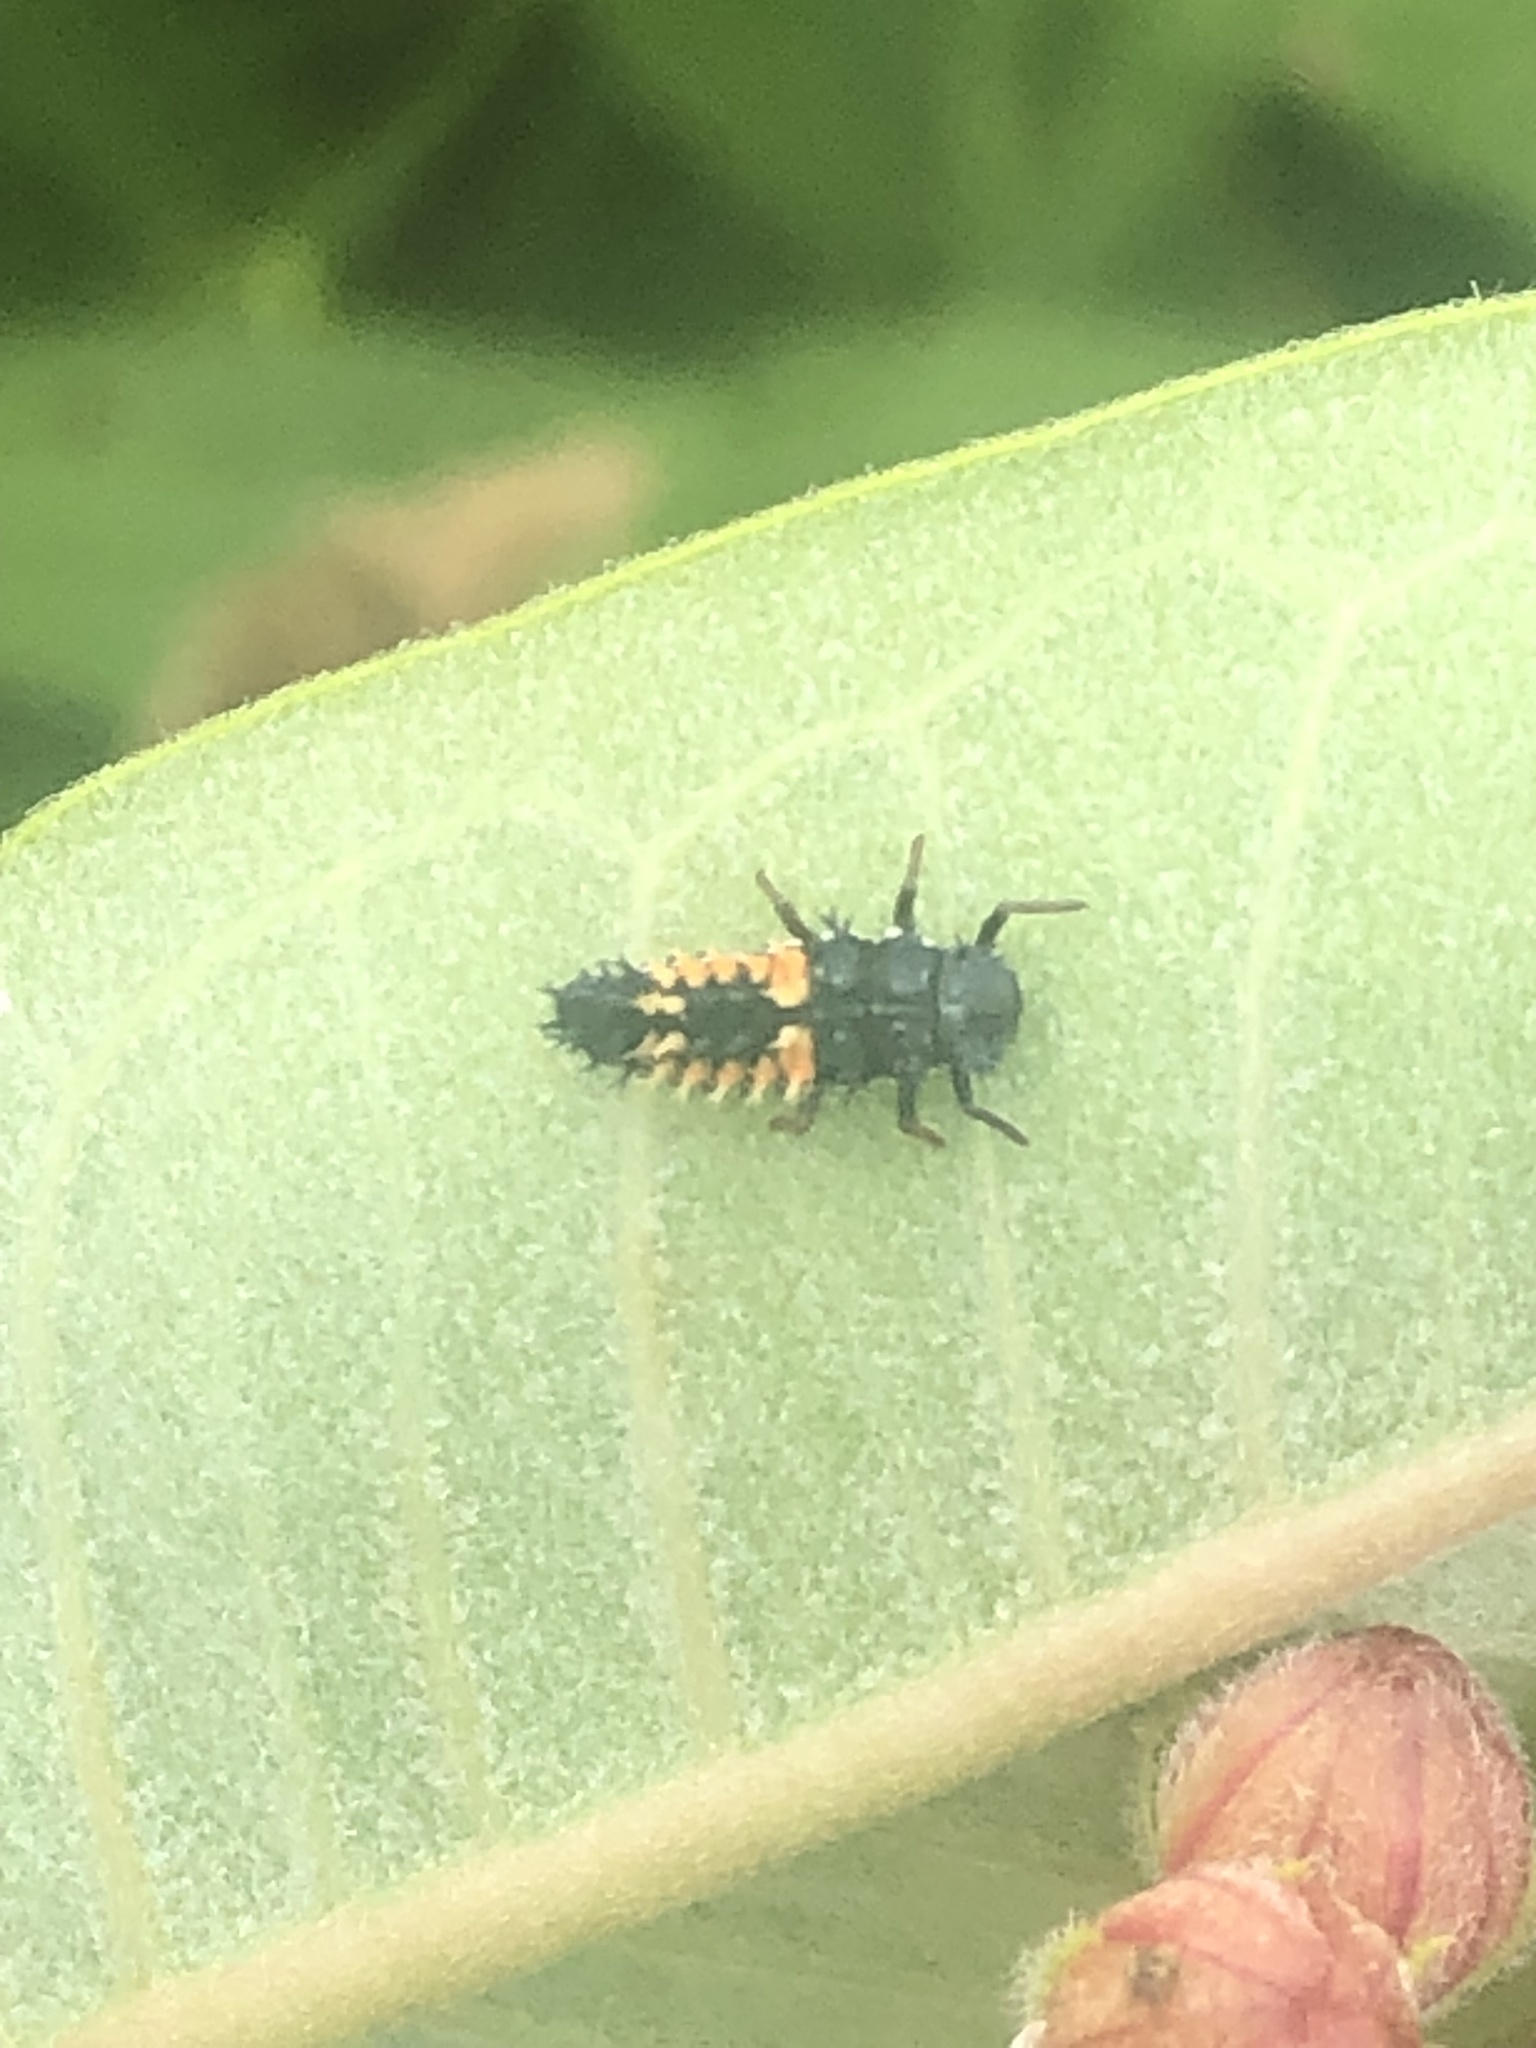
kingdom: Animalia
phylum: Arthropoda
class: Insecta
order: Coleoptera
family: Coccinellidae
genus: Harmonia
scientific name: Harmonia axyridis
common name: Harlequin ladybird
